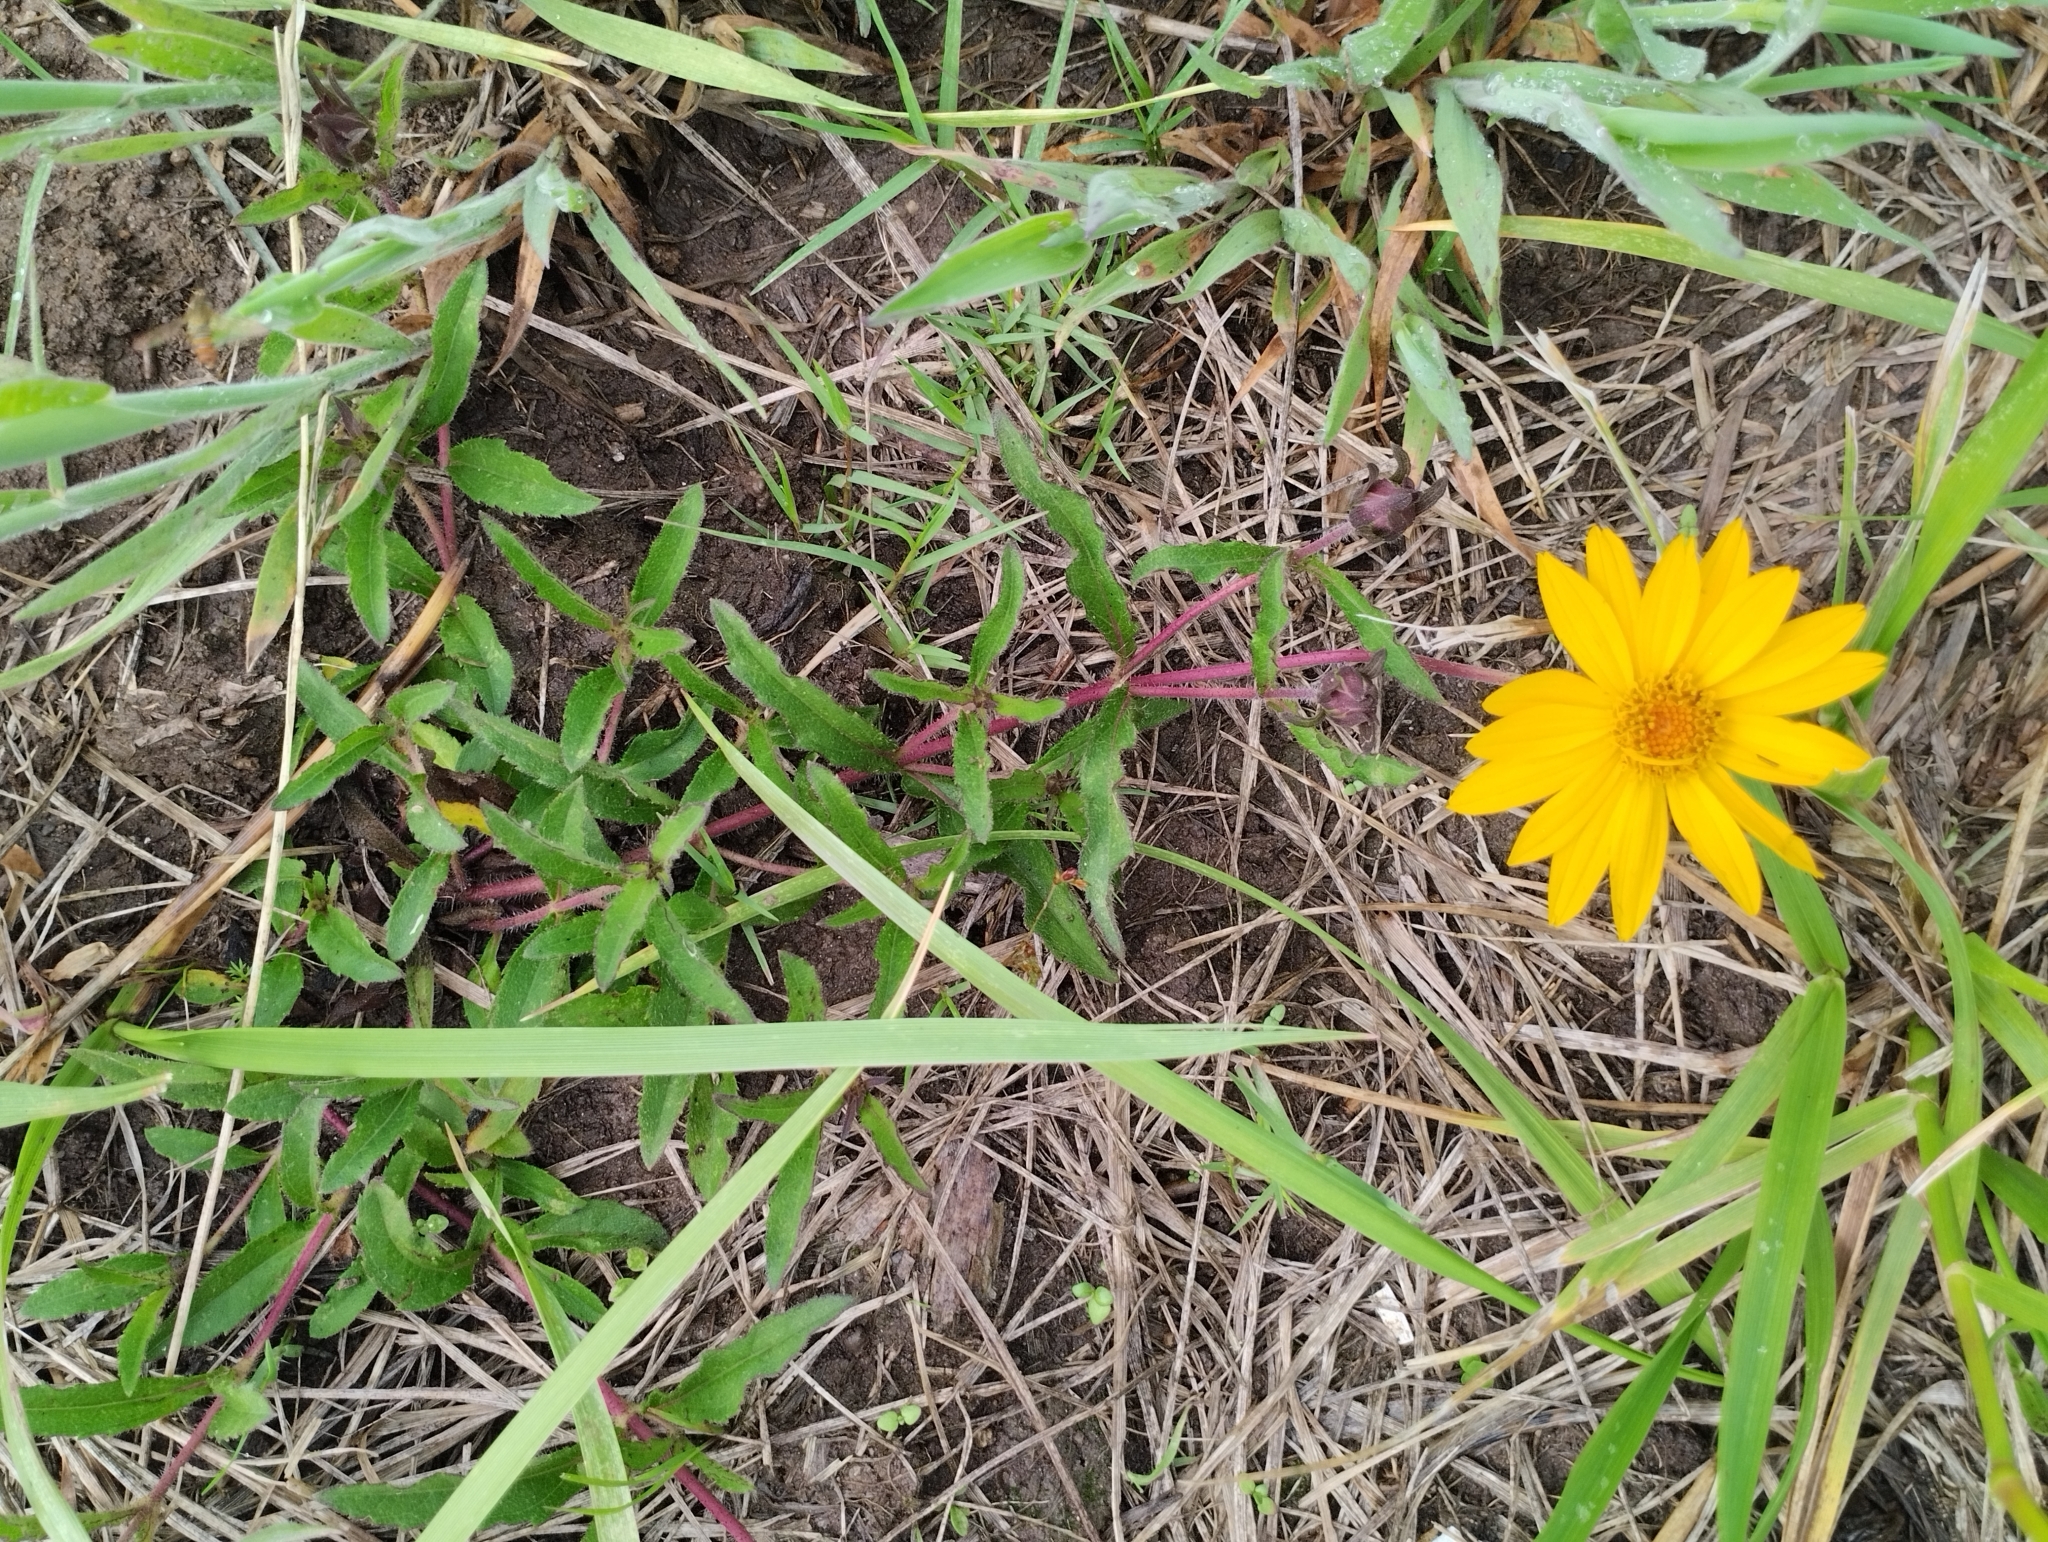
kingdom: Plantae
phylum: Tracheophyta
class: Magnoliopsida
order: Asterales
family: Asteraceae
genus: Wedelia
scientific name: Wedelia montevidensis
